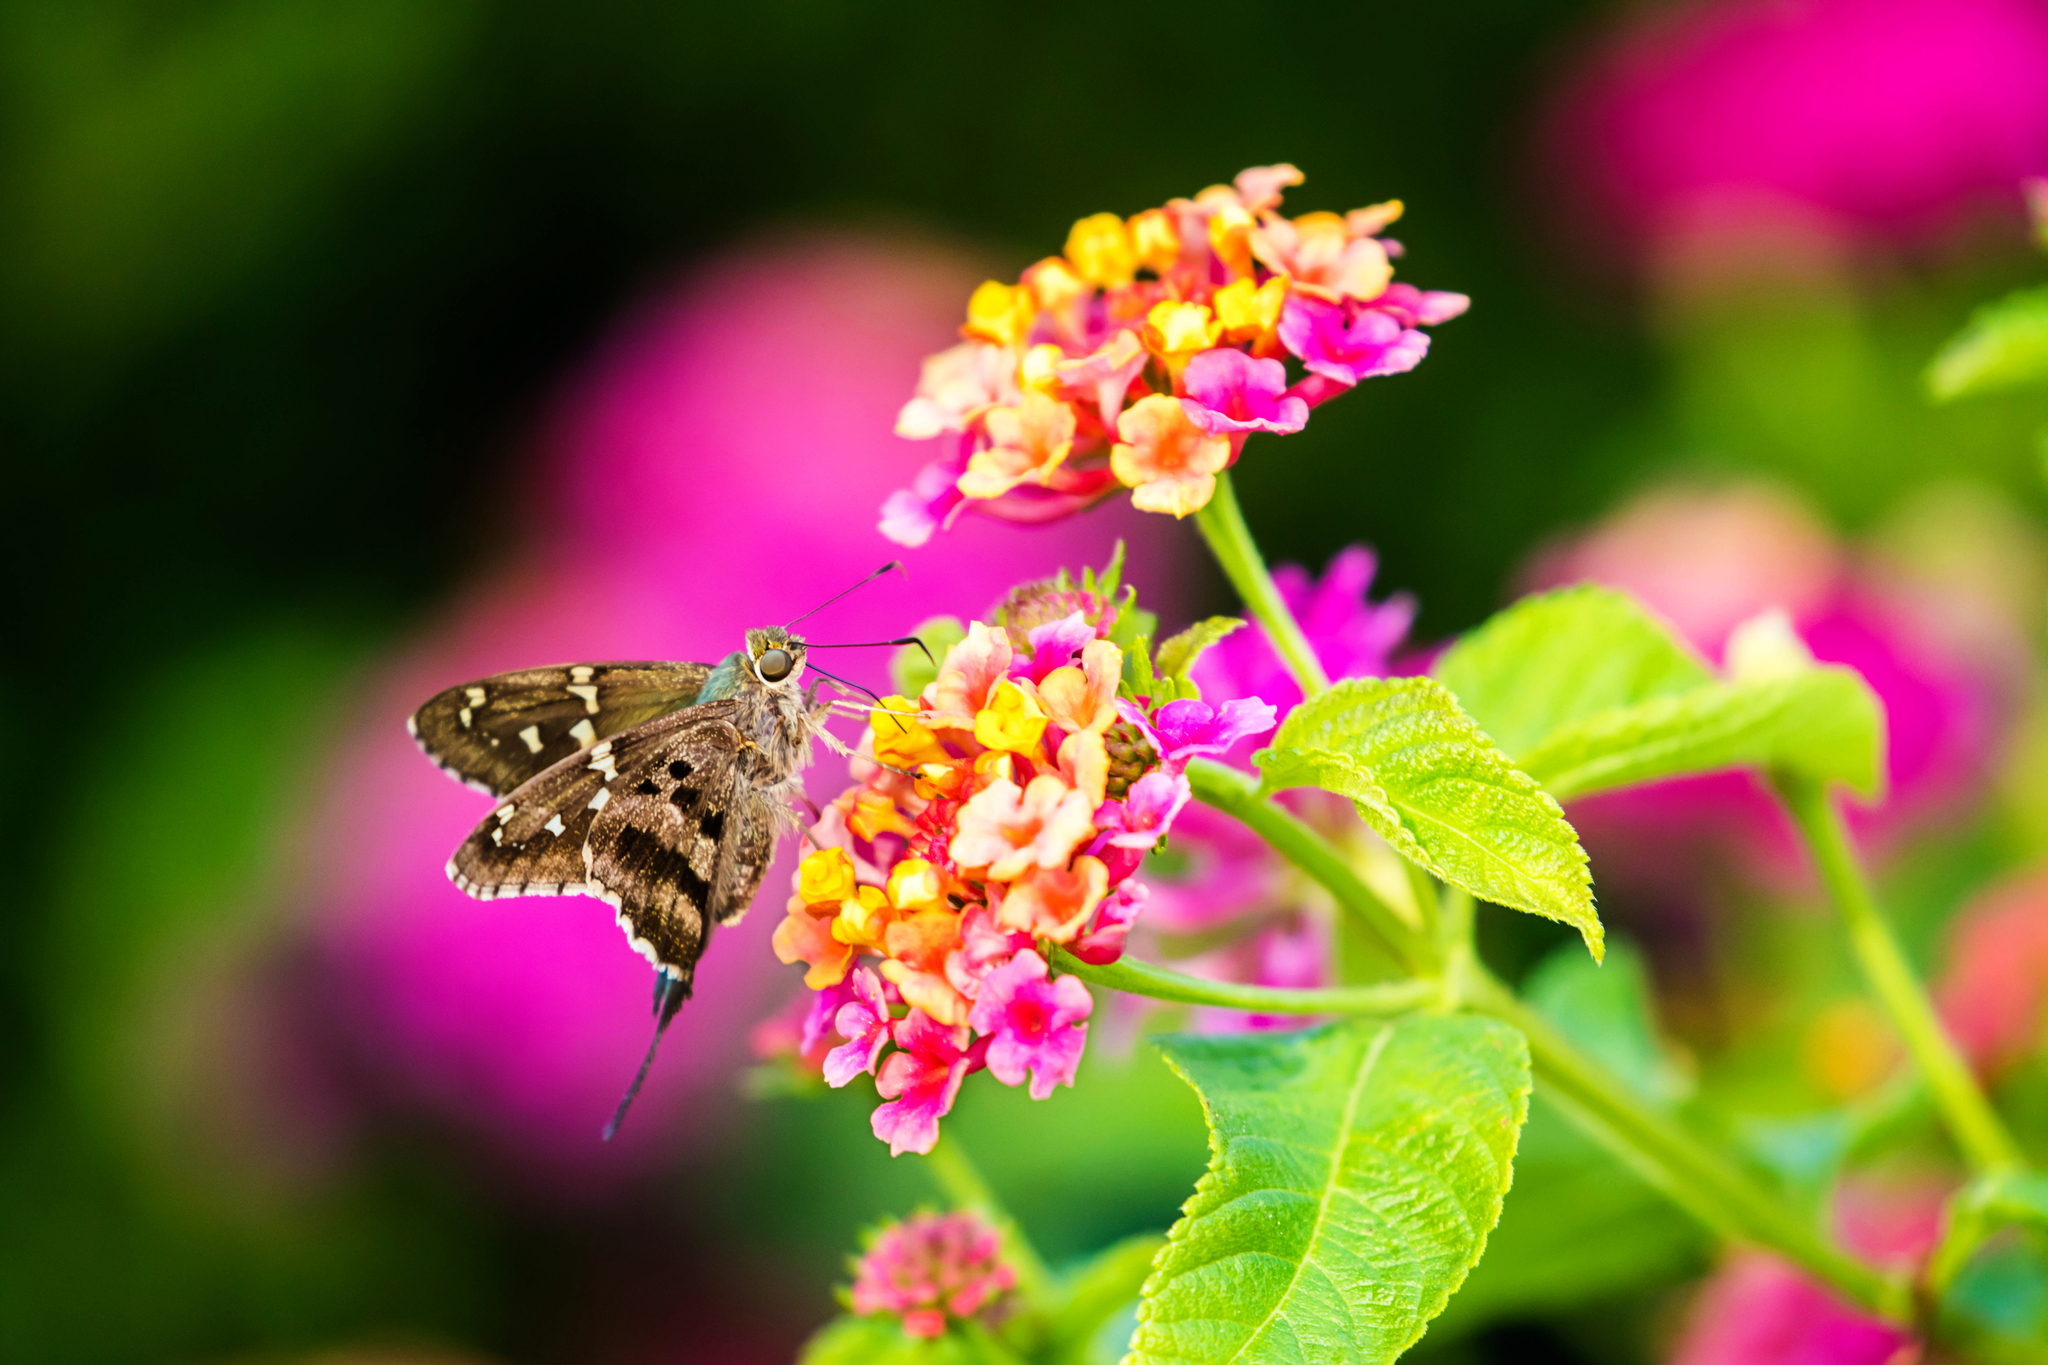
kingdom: Animalia
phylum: Arthropoda
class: Insecta
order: Lepidoptera
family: Hesperiidae
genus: Urbanus
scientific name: Urbanus proteus
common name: Long-tailed skipper
